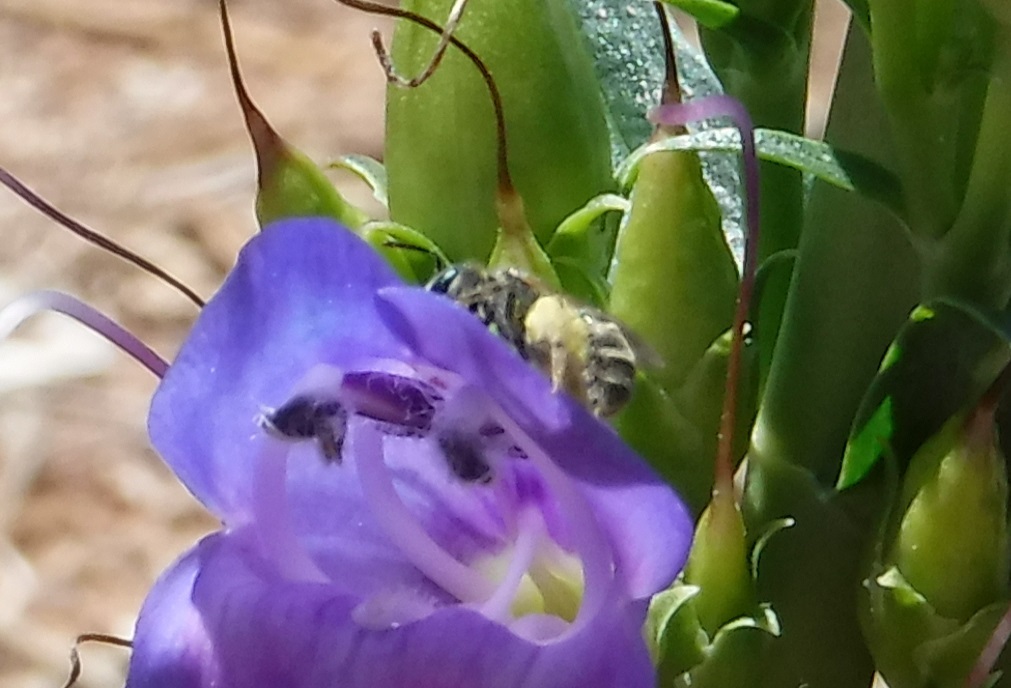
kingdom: Animalia
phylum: Arthropoda
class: Insecta
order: Hymenoptera
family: Halictidae
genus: Halictus
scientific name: Halictus tripartitus
